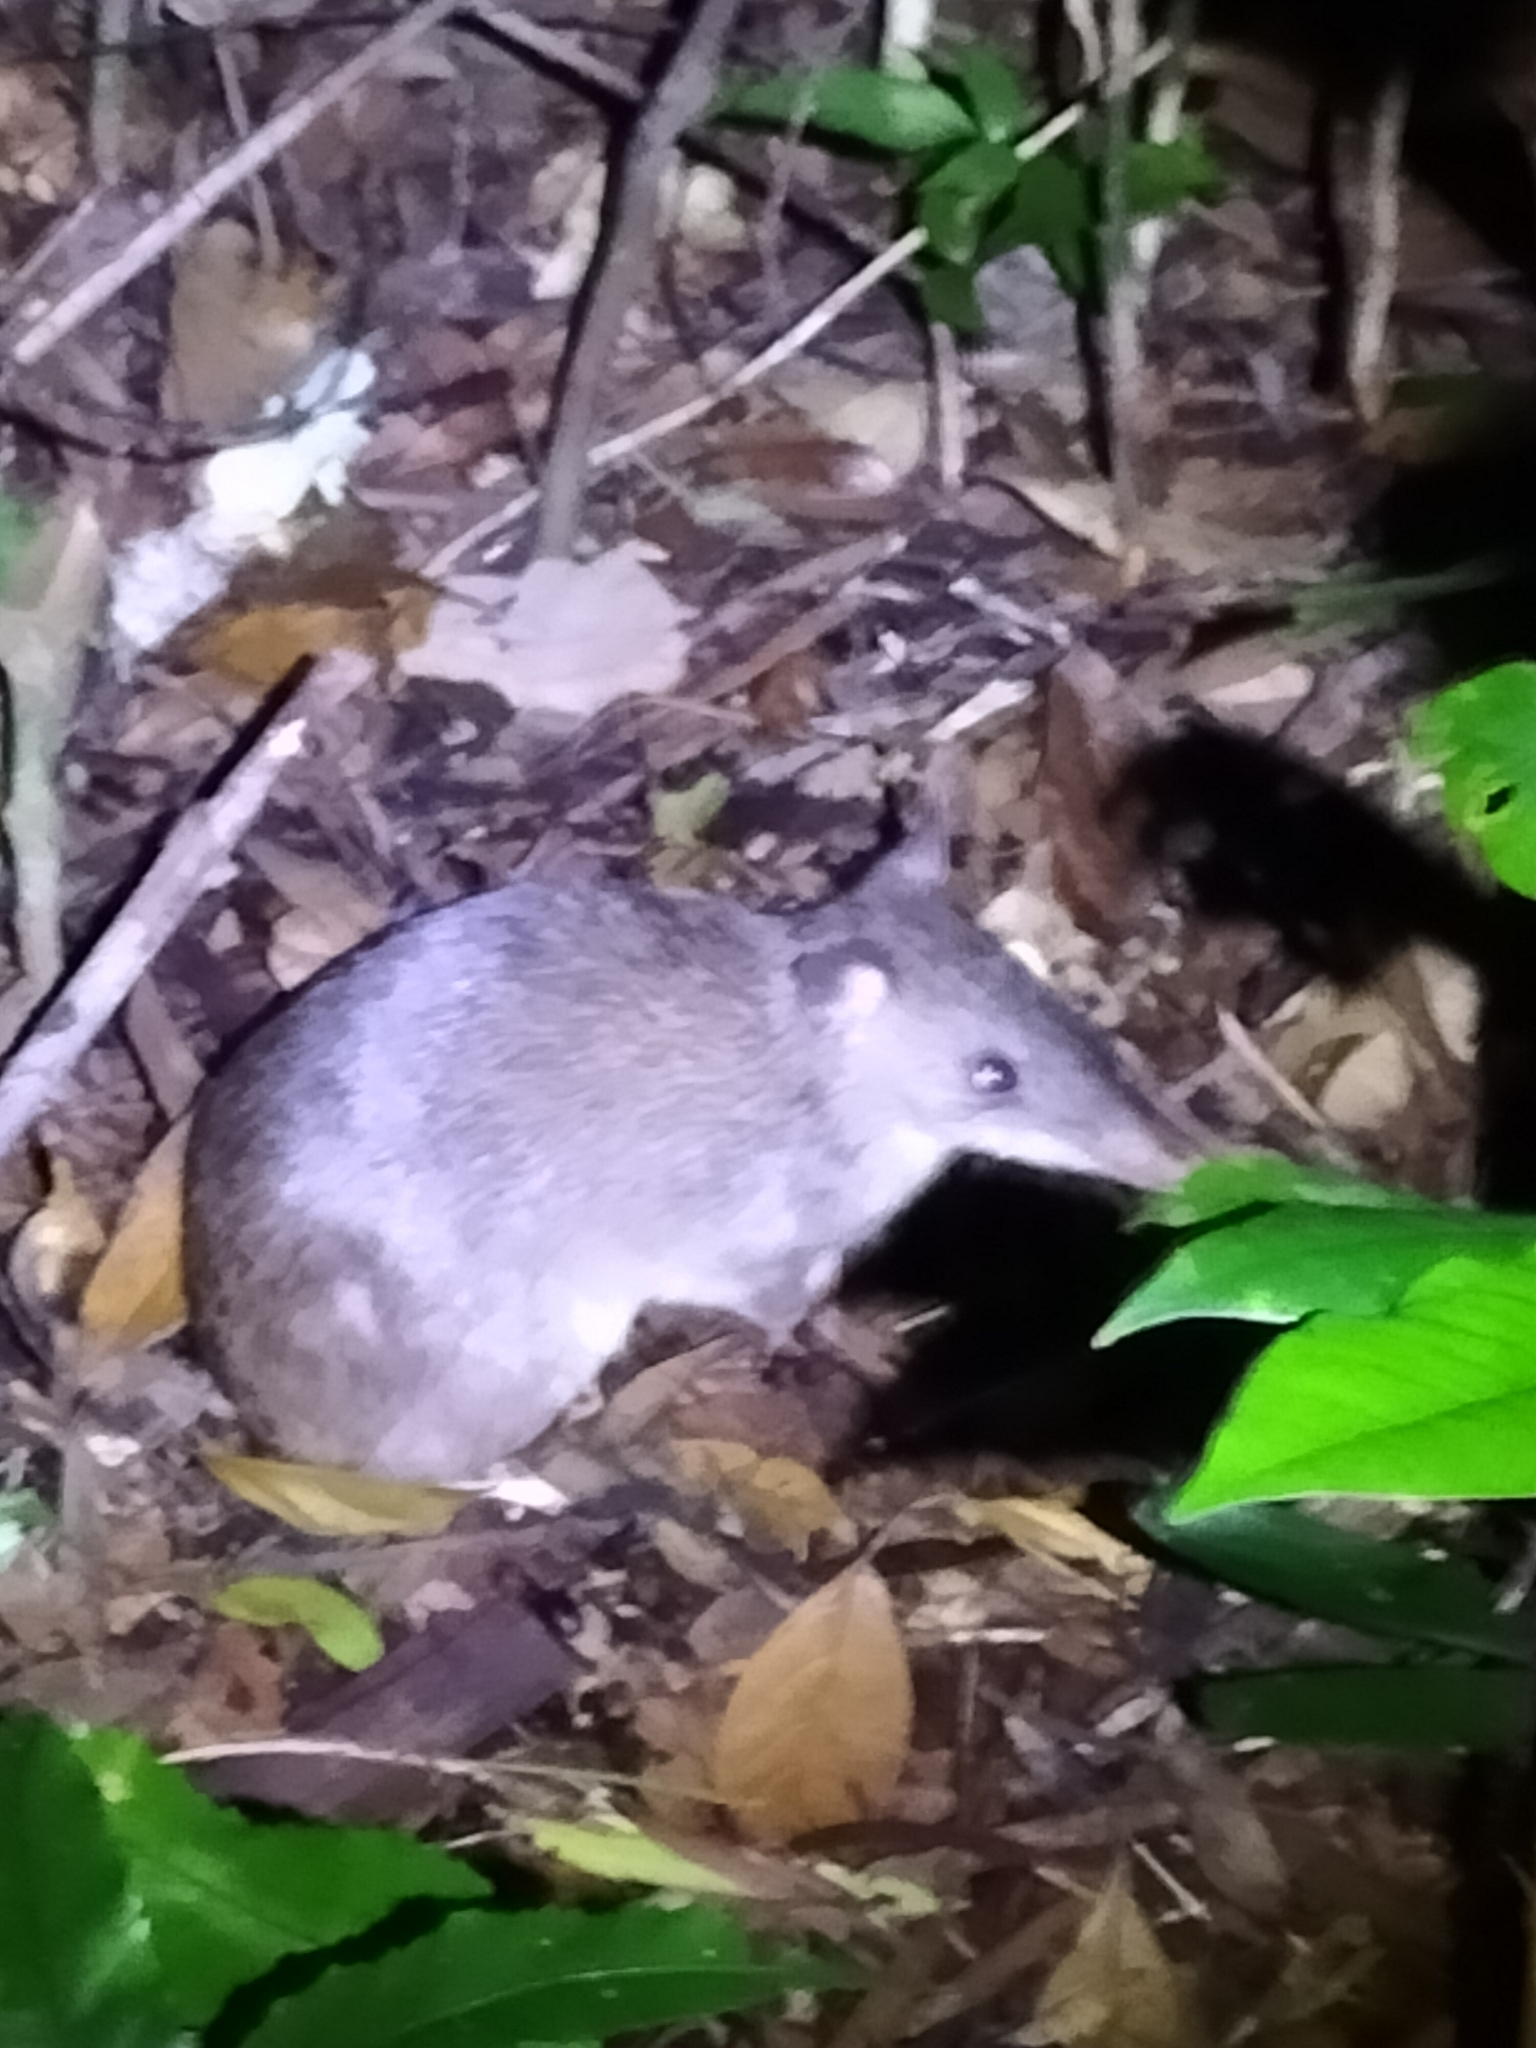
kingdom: Animalia
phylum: Chordata
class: Mammalia
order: Peramelemorphia
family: Peramelidae
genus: Perameles
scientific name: Perameles pallescens
